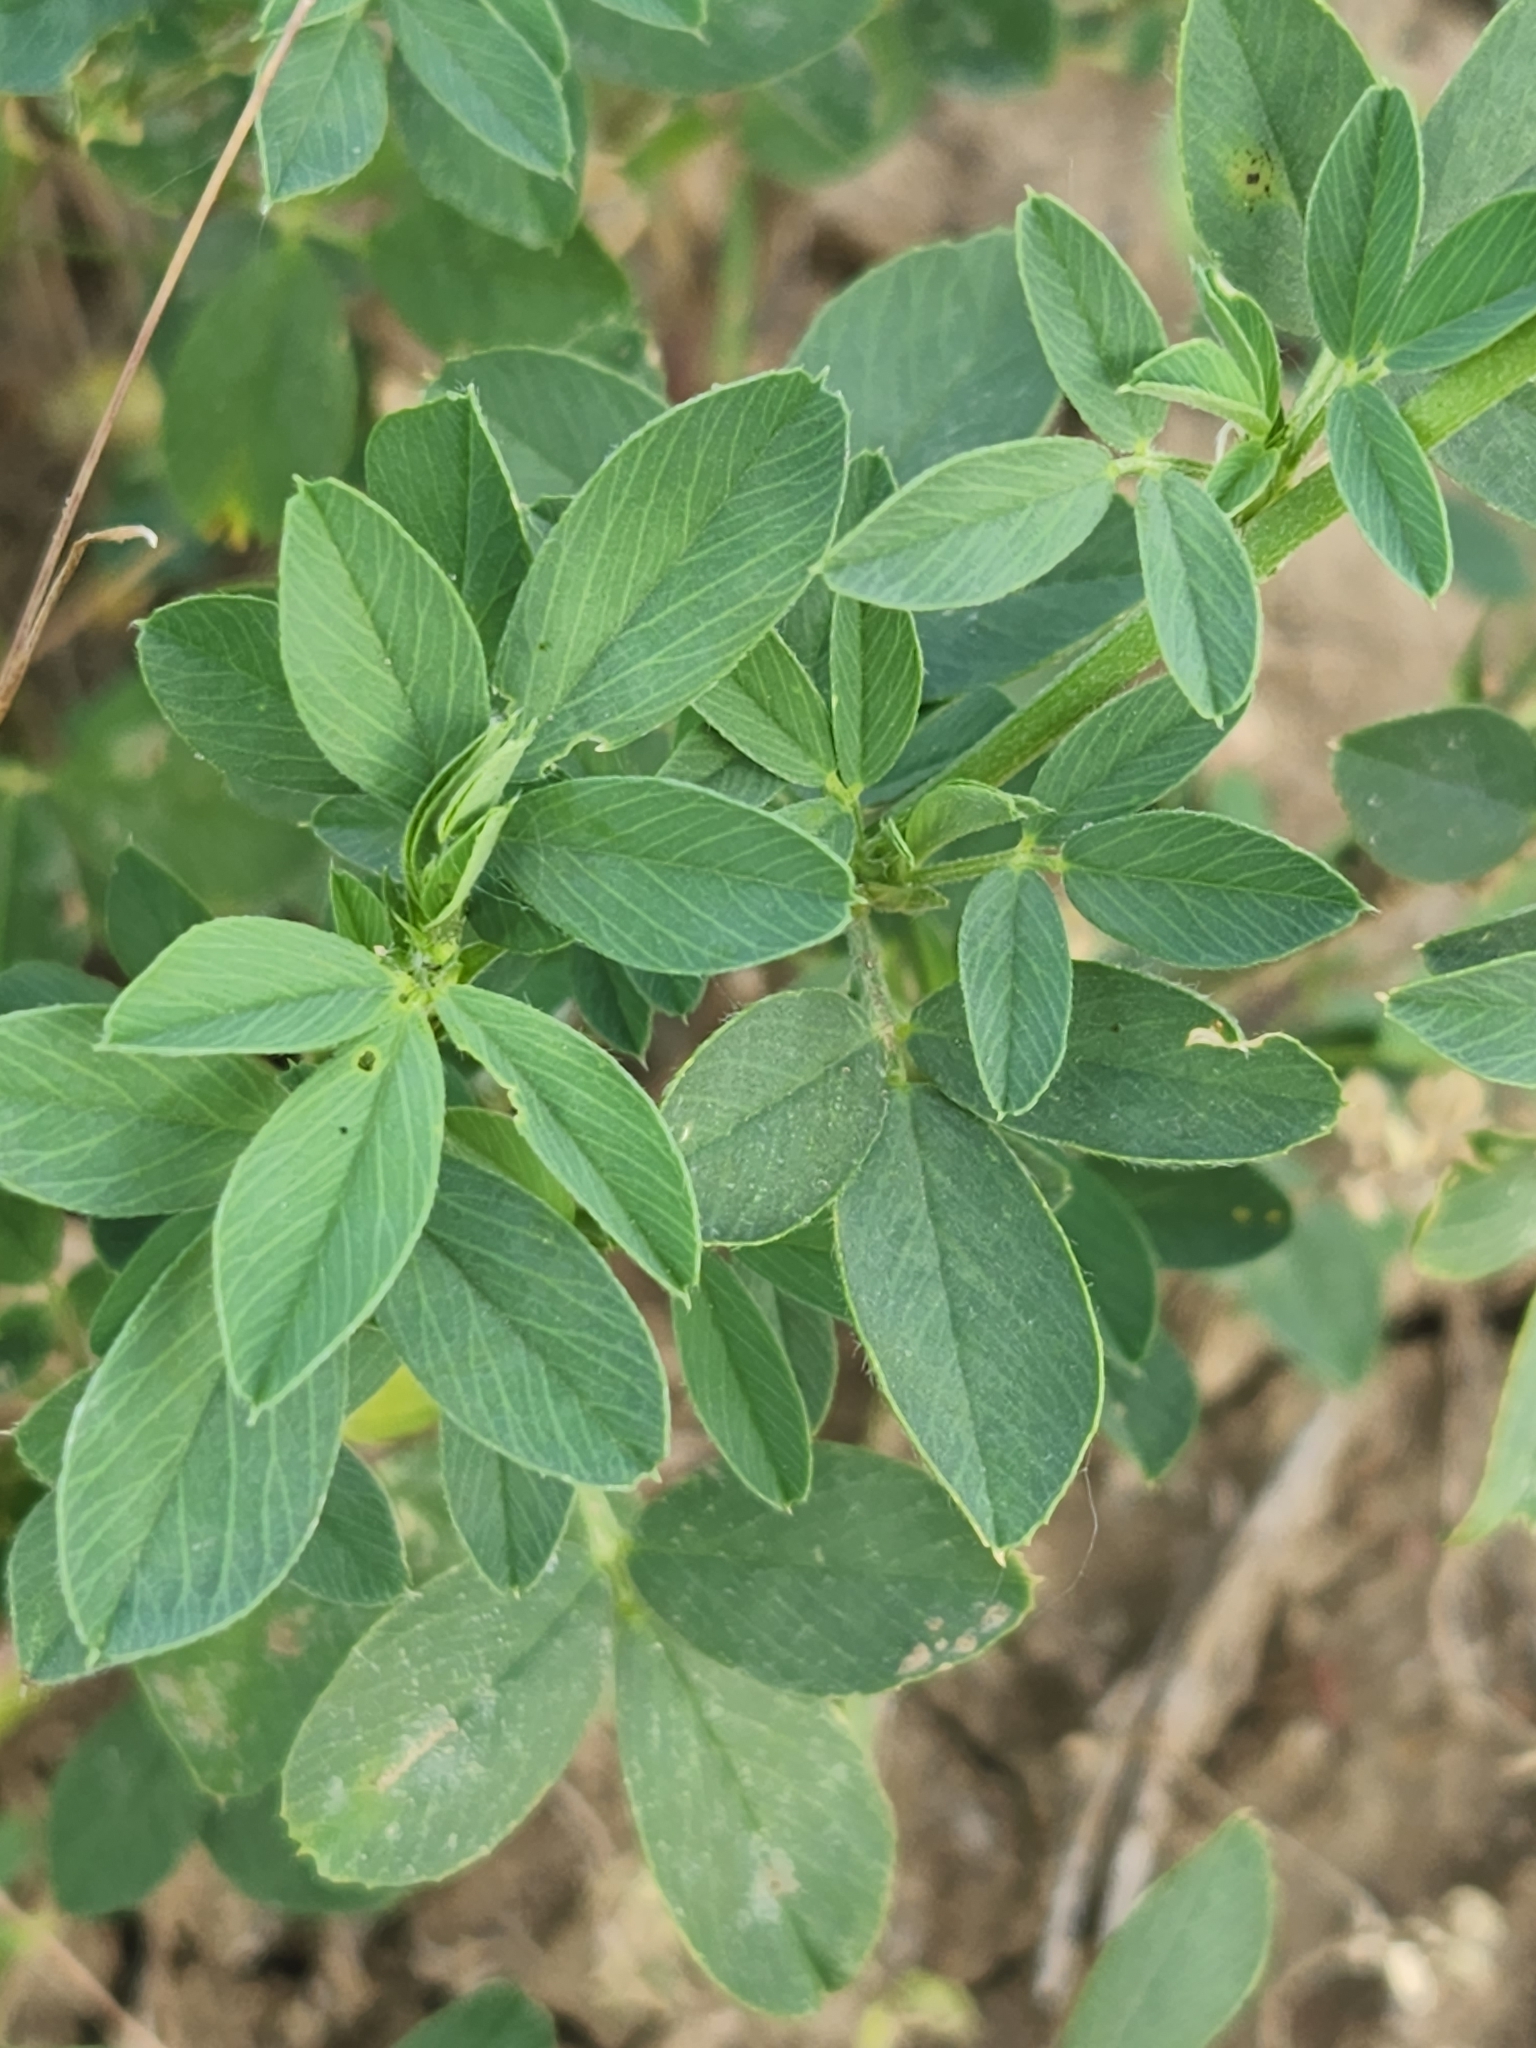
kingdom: Plantae
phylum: Tracheophyta
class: Magnoliopsida
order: Fabales
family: Fabaceae
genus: Medicago
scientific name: Medicago sativa
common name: Alfalfa
